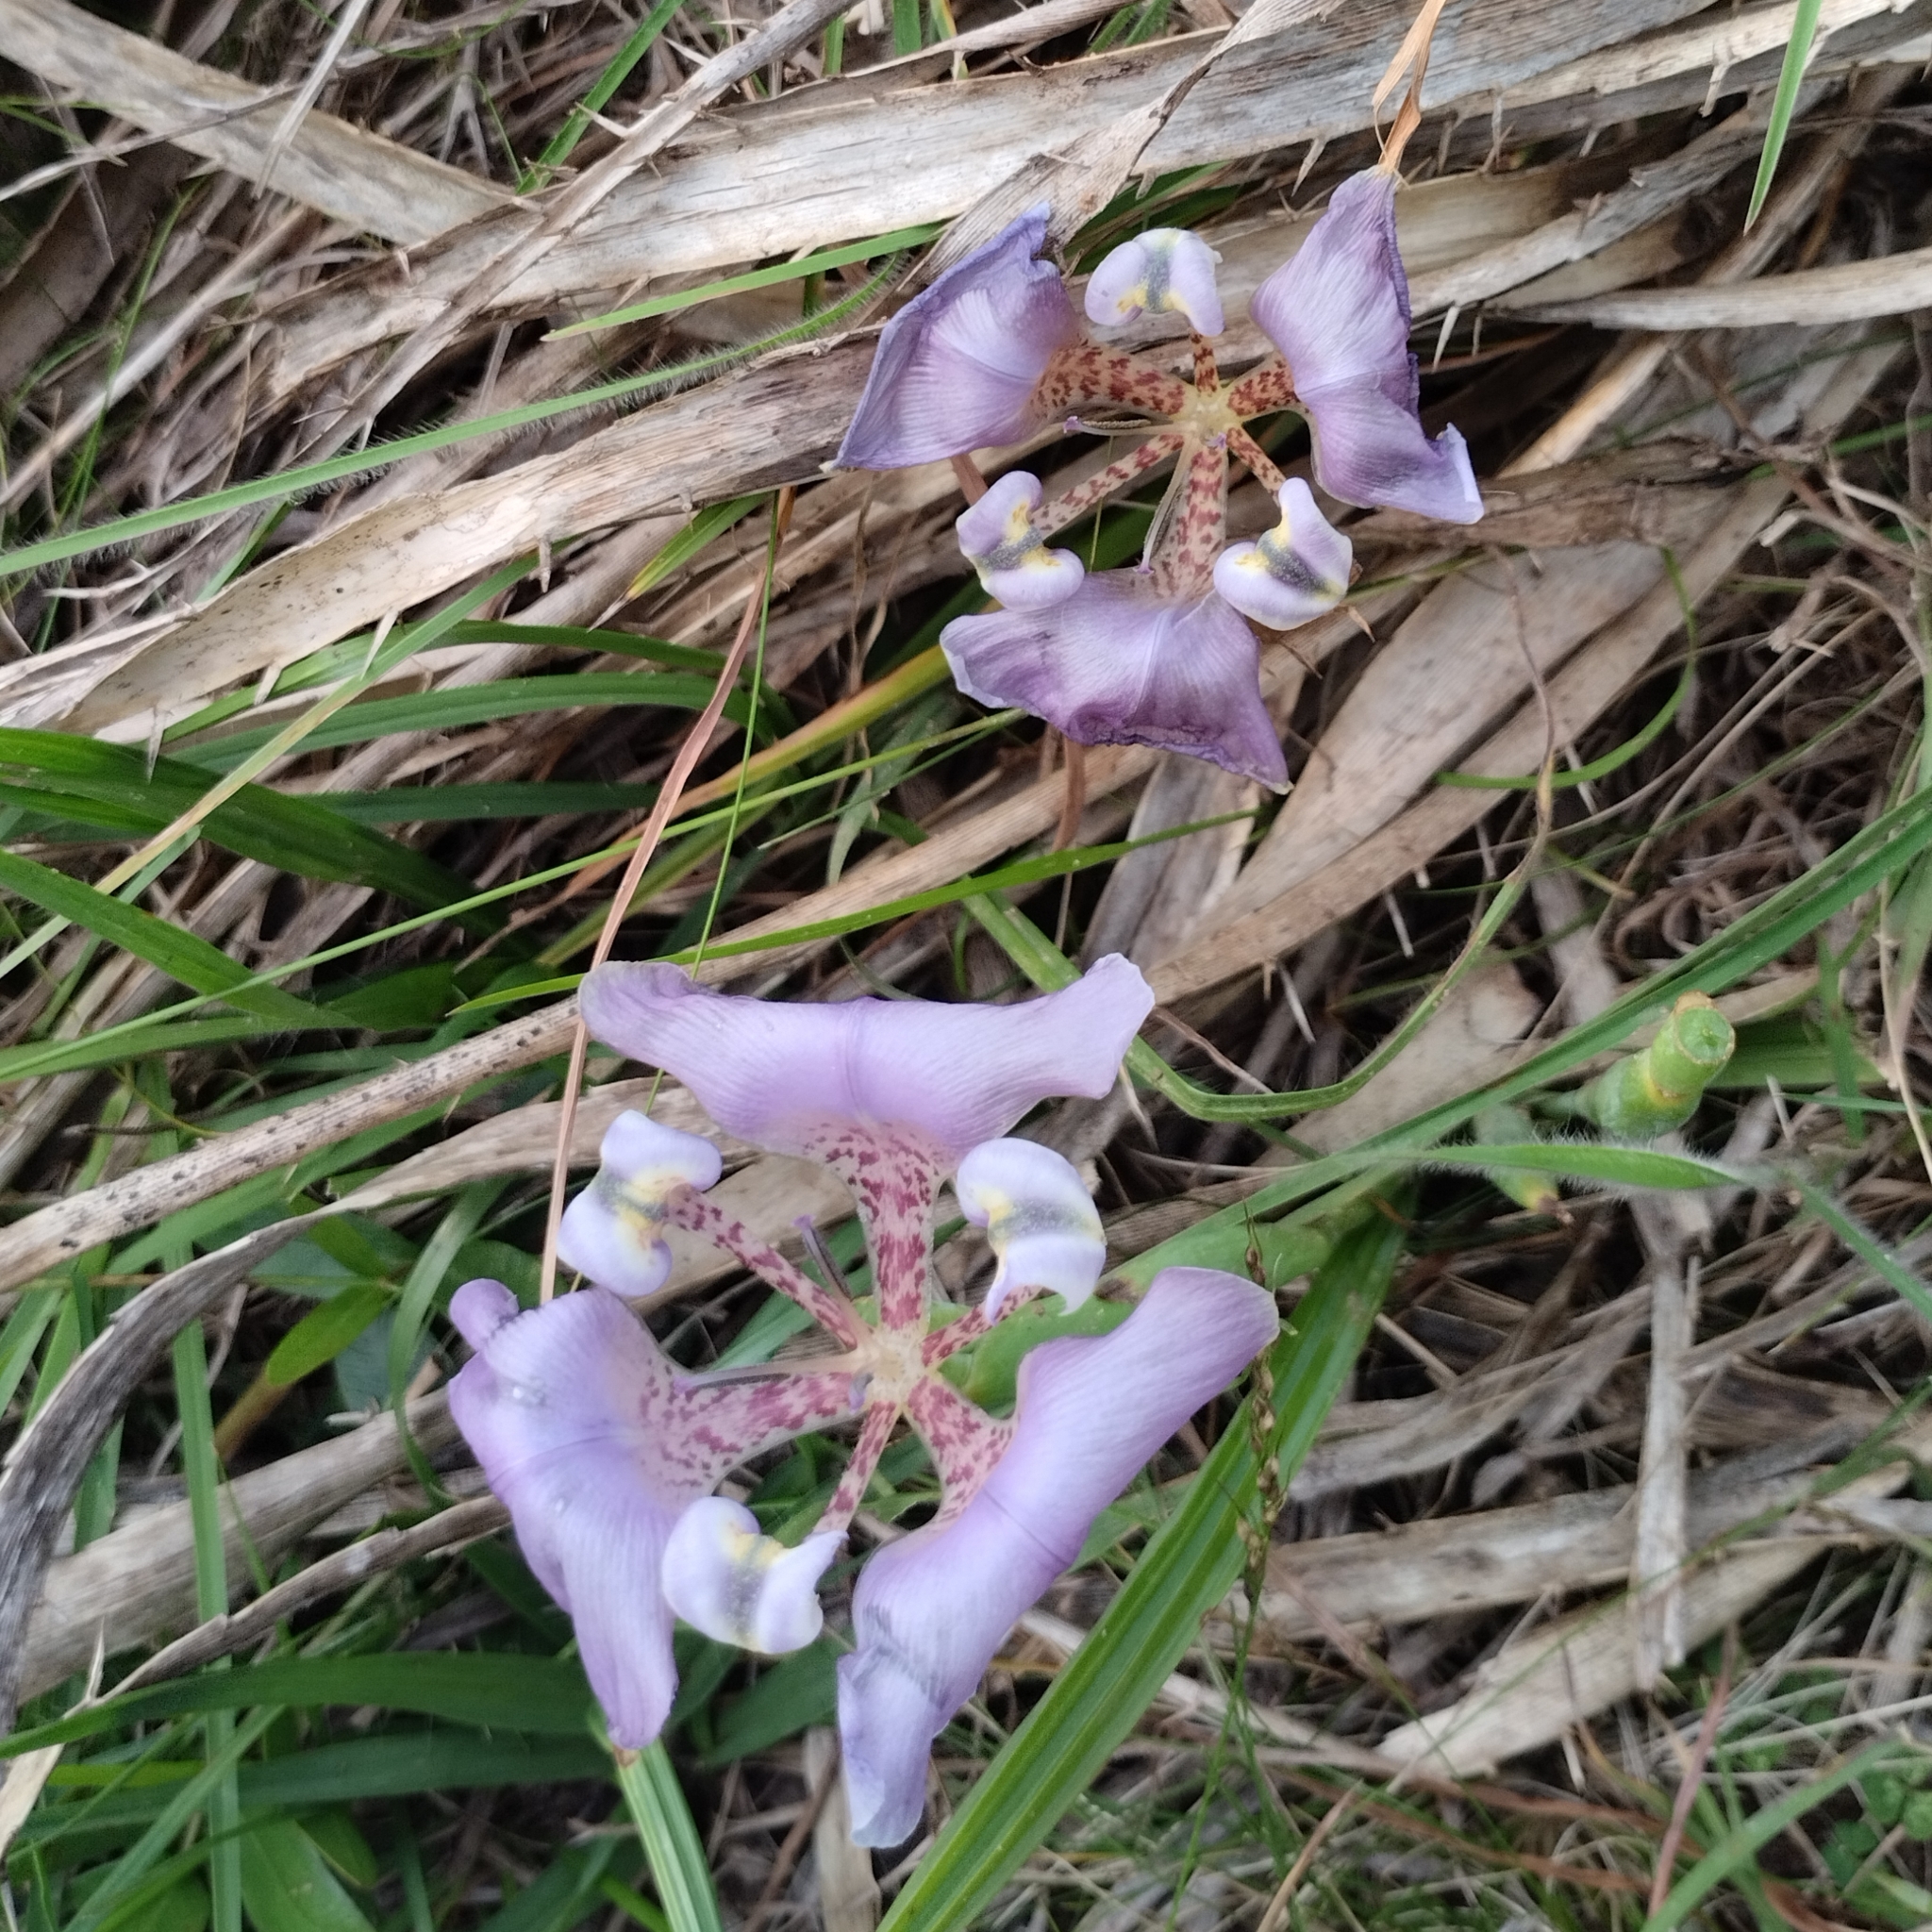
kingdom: Plantae
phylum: Tracheophyta
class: Liliopsida
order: Asparagales
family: Iridaceae
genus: Cypella
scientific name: Cypella unguiculata
